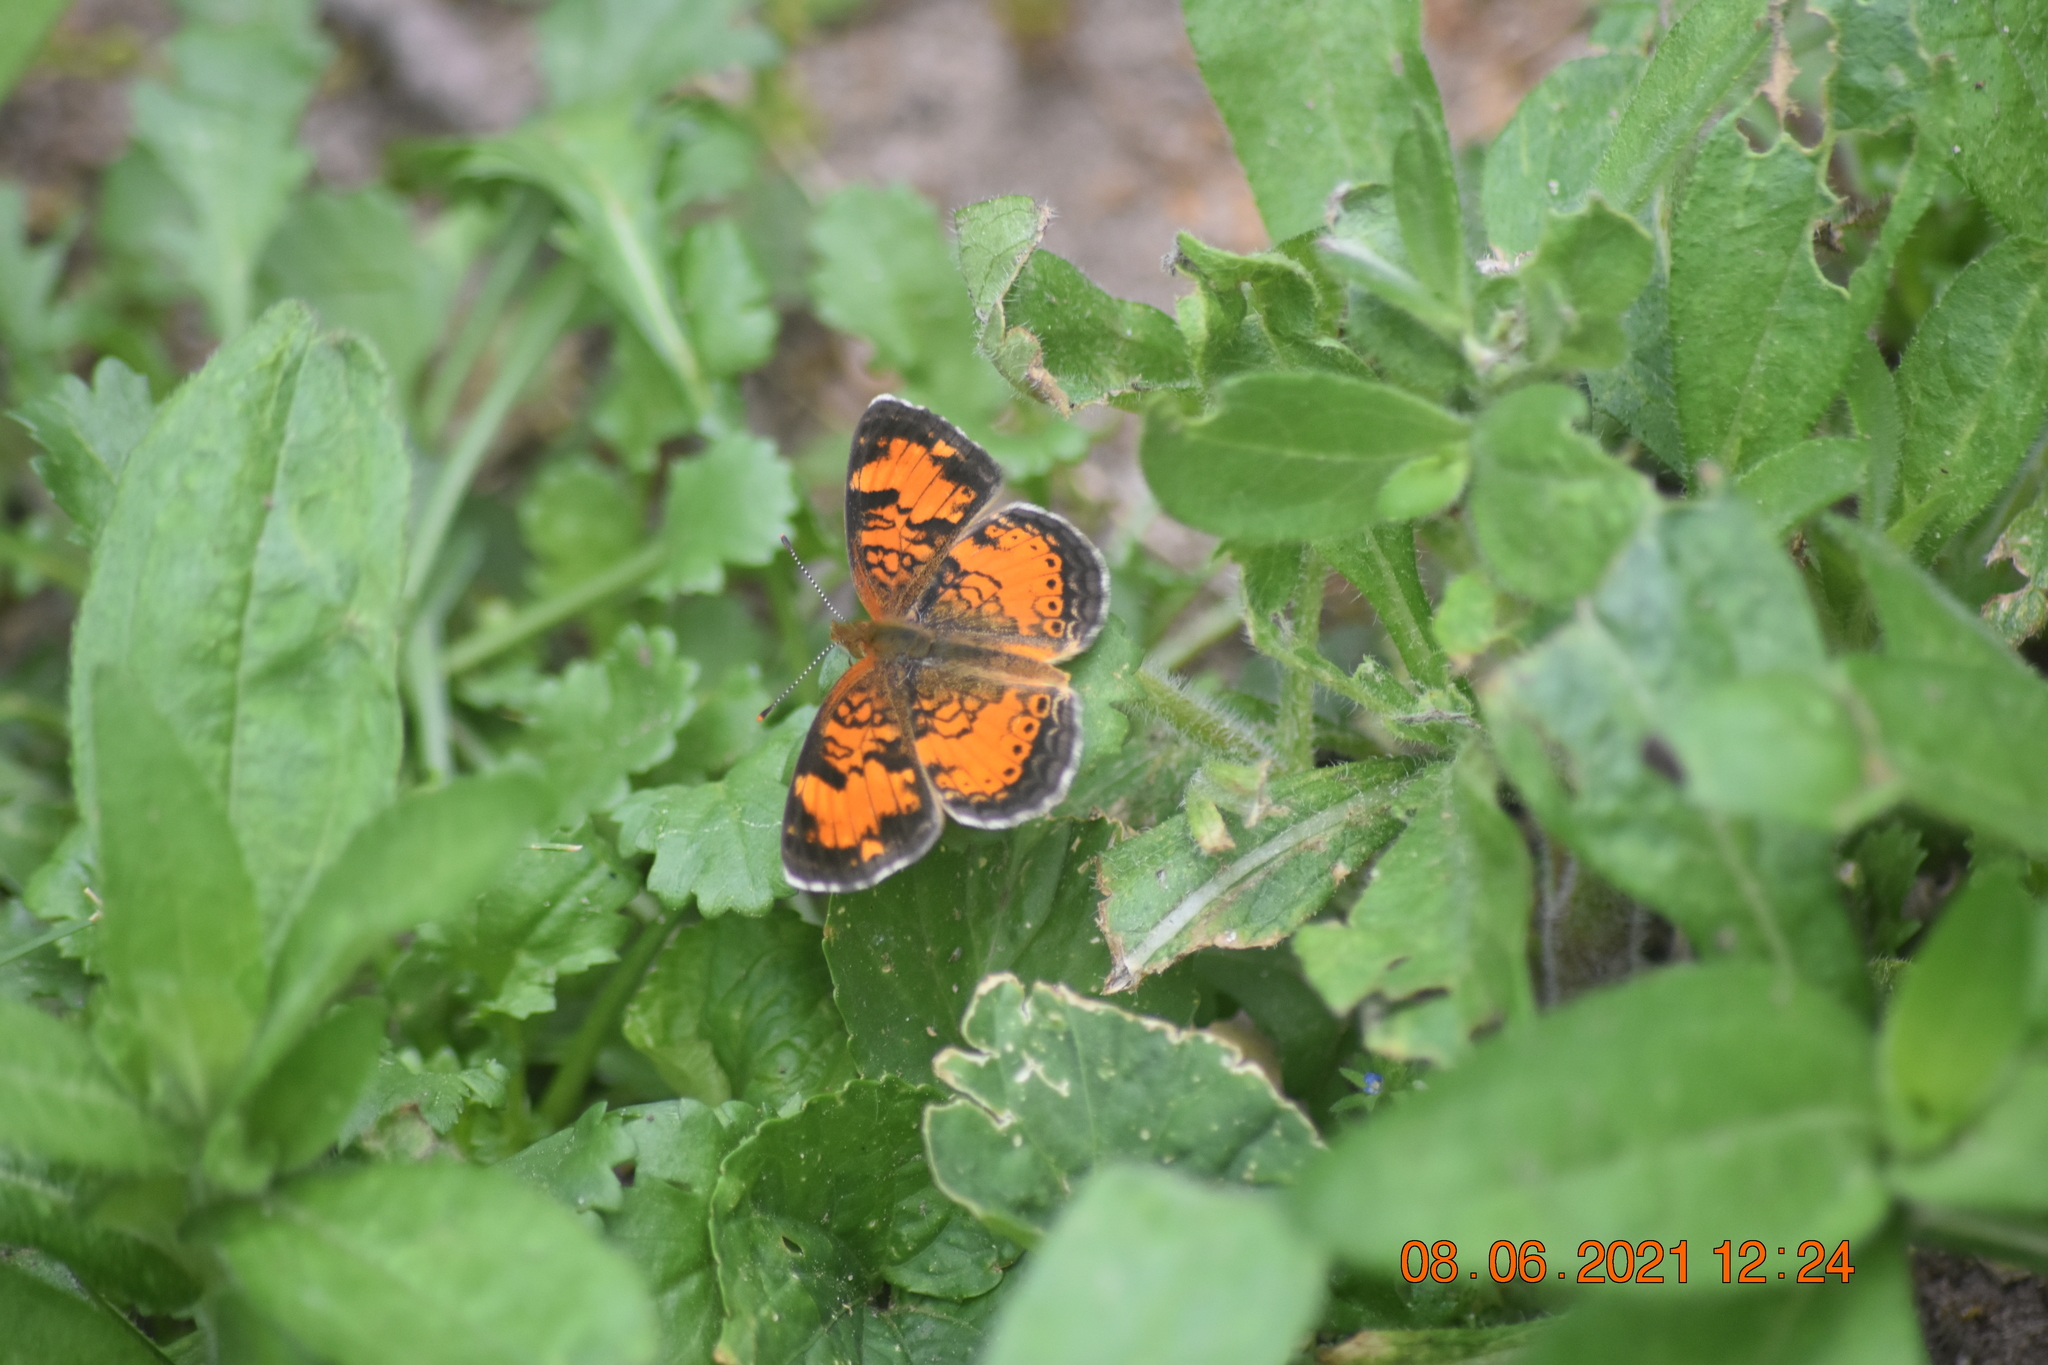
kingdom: Animalia
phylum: Arthropoda
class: Insecta
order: Lepidoptera
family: Nymphalidae
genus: Phyciodes
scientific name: Phyciodes tharos
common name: Pearl crescent
